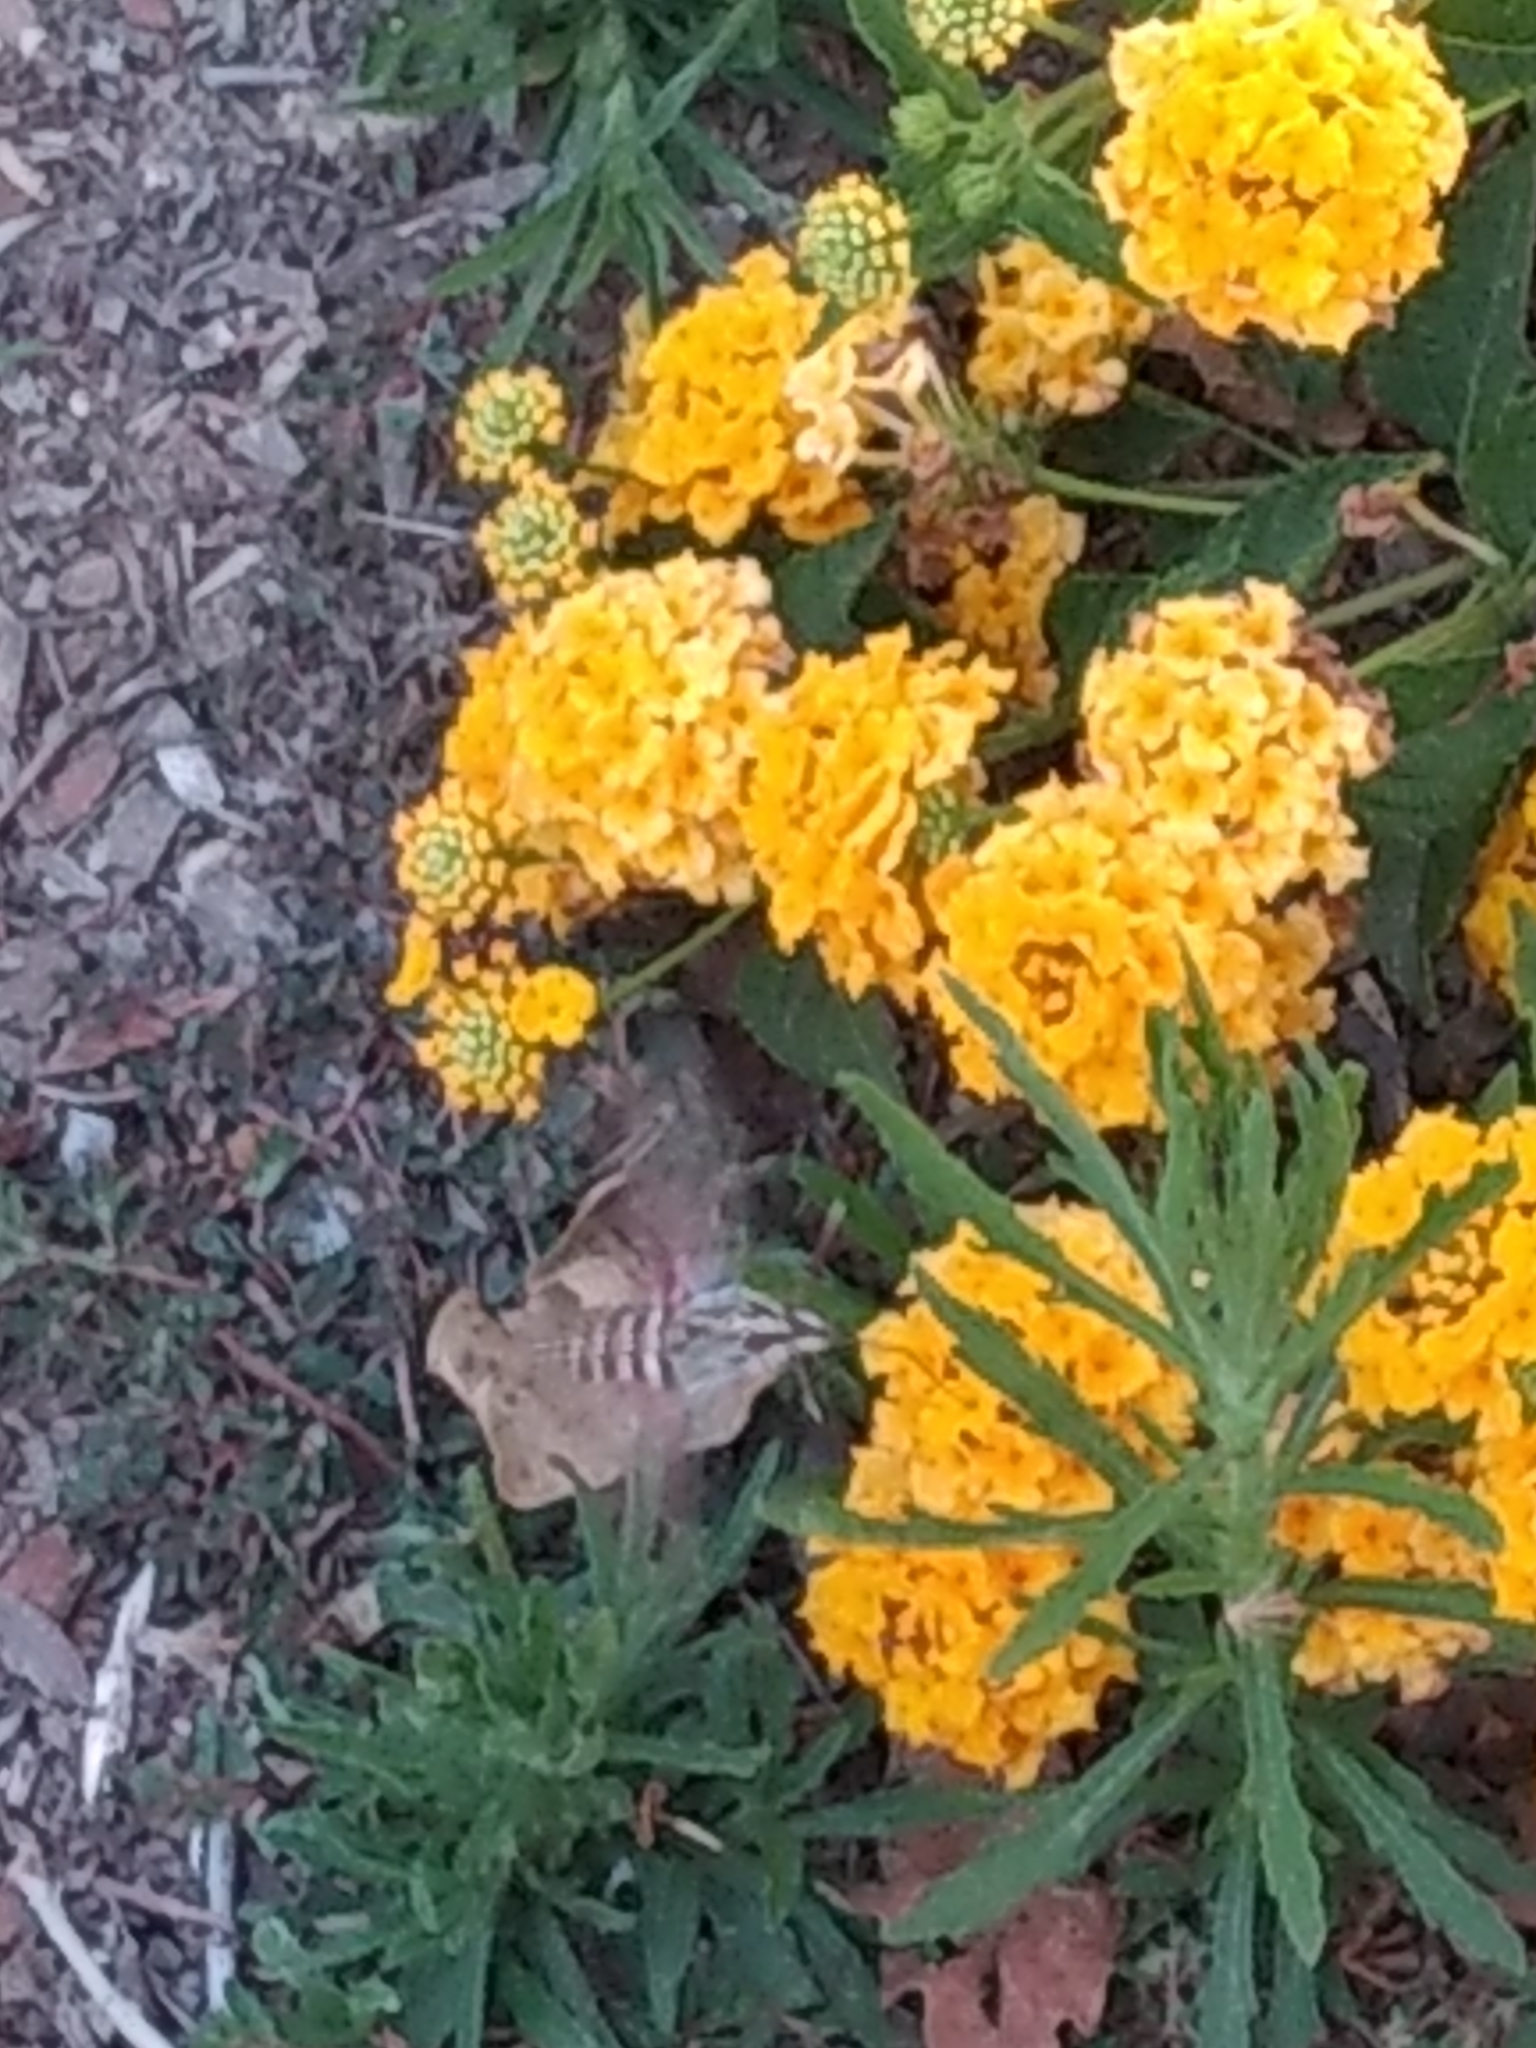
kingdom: Animalia
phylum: Arthropoda
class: Insecta
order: Lepidoptera
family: Sphingidae
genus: Hyles
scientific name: Hyles lineata
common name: White-lined sphinx
